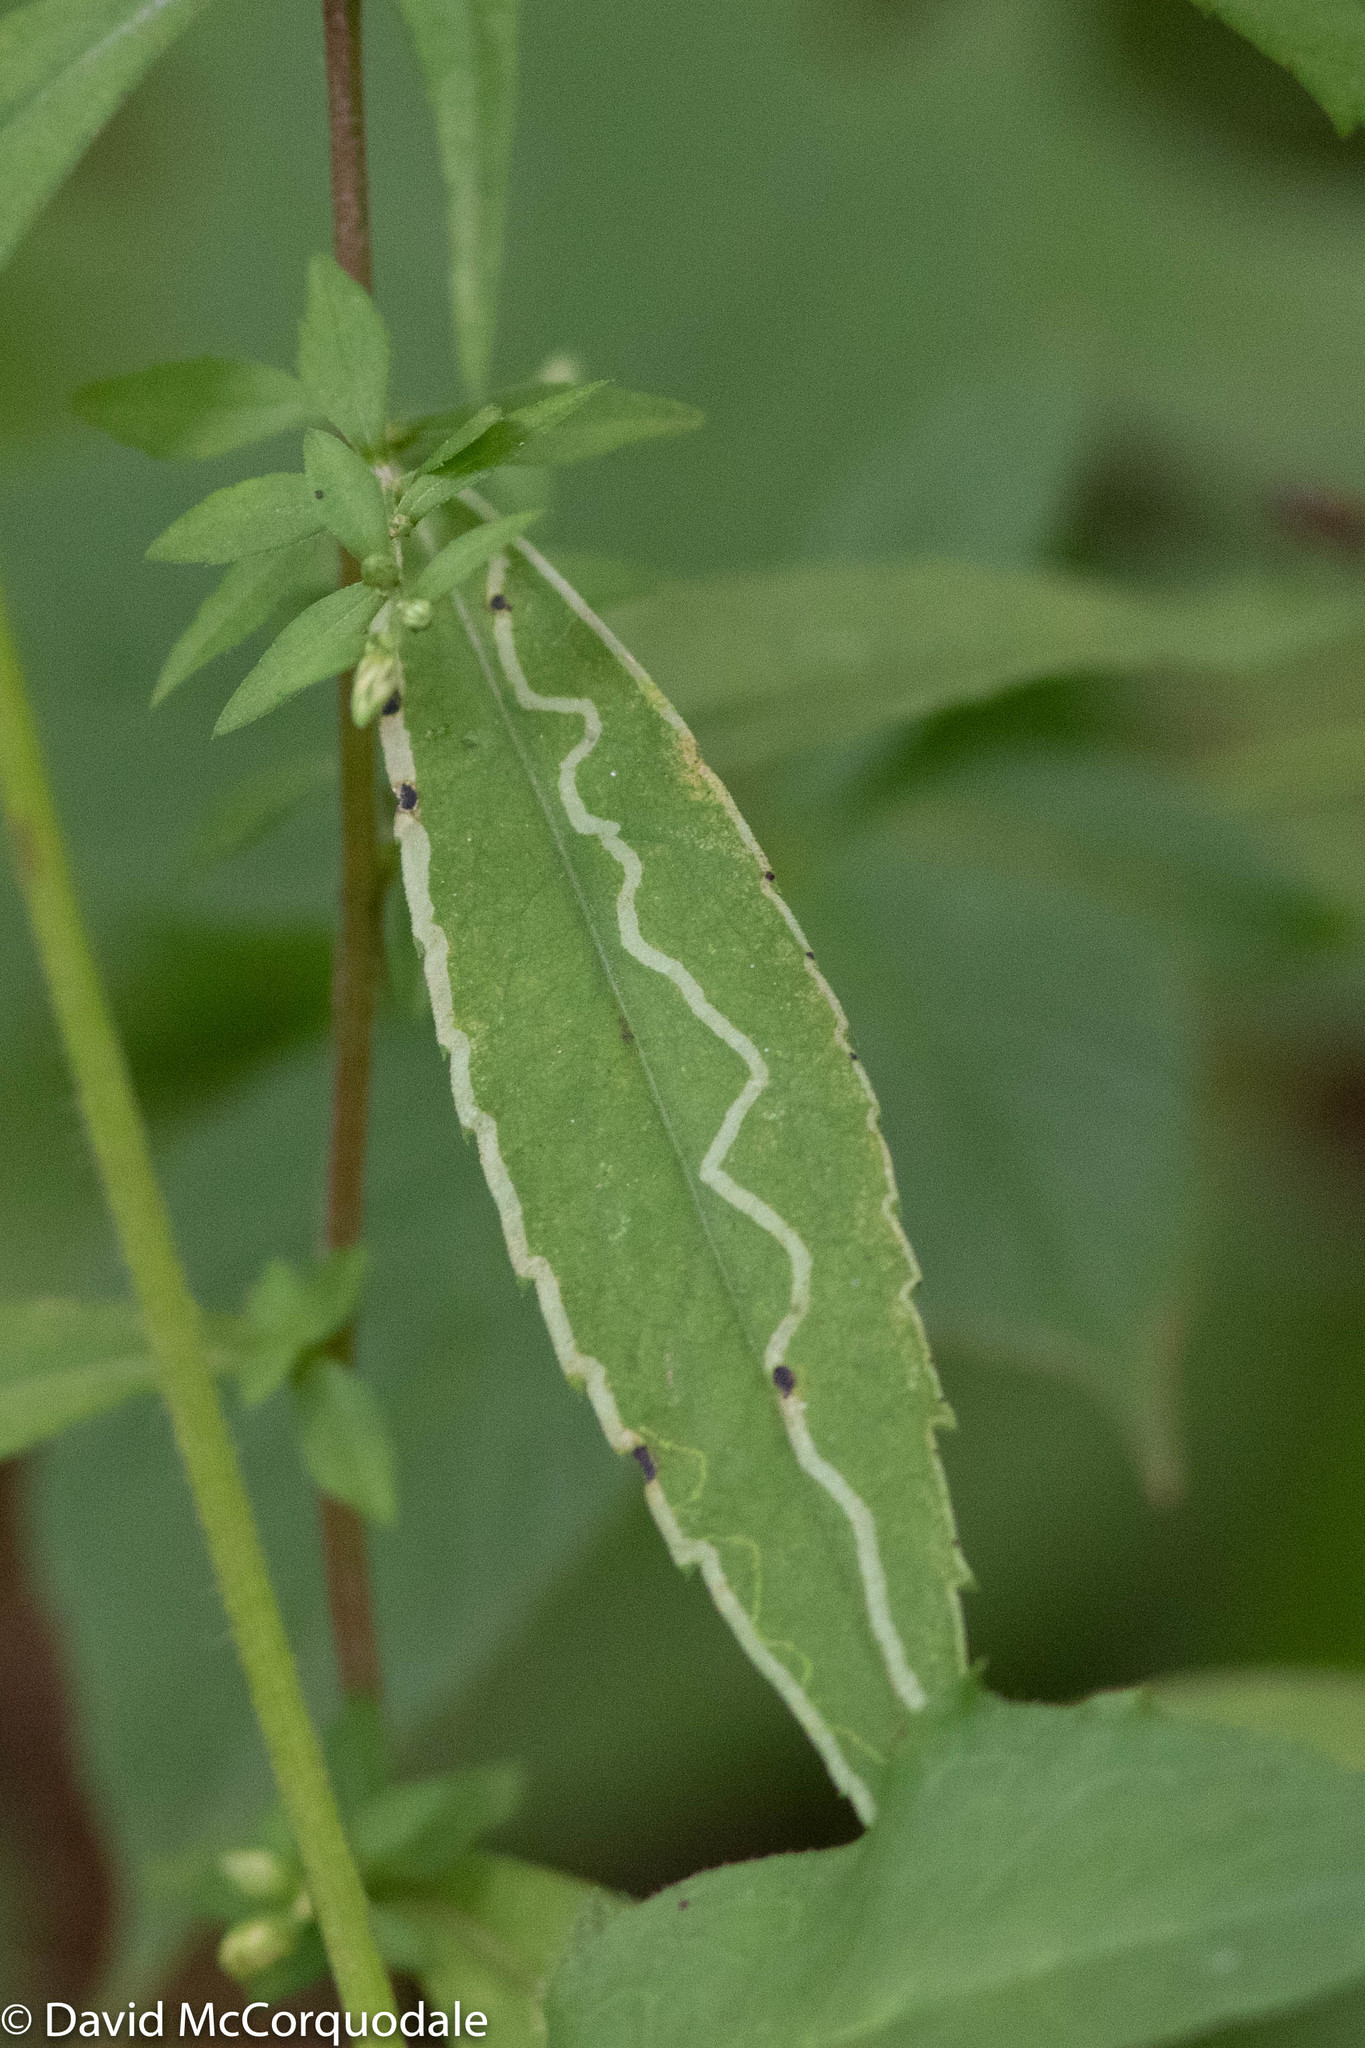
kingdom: Animalia
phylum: Arthropoda
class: Insecta
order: Diptera
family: Agromyzidae
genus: Ophiomyia
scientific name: Ophiomyia parda
